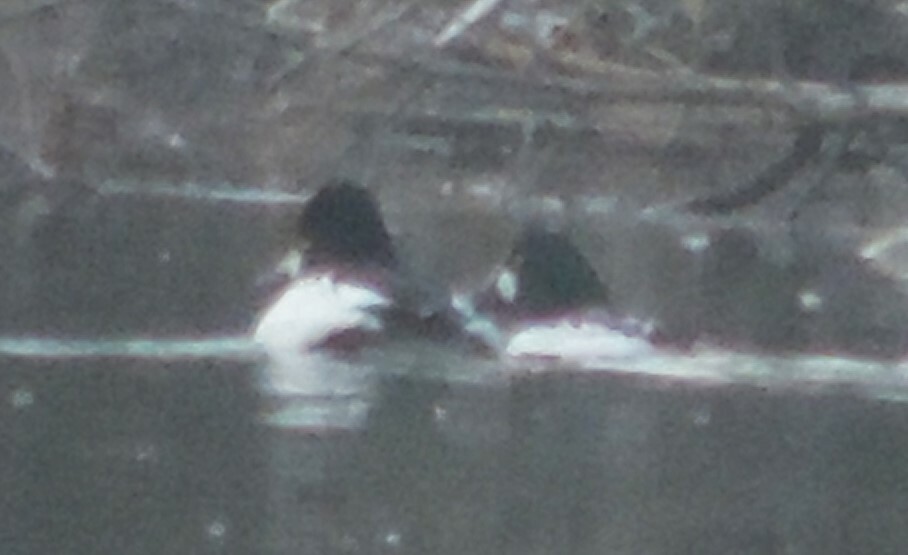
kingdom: Animalia
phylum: Chordata
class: Aves
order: Anseriformes
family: Anatidae
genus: Bucephala
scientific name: Bucephala clangula
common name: Common goldeneye
